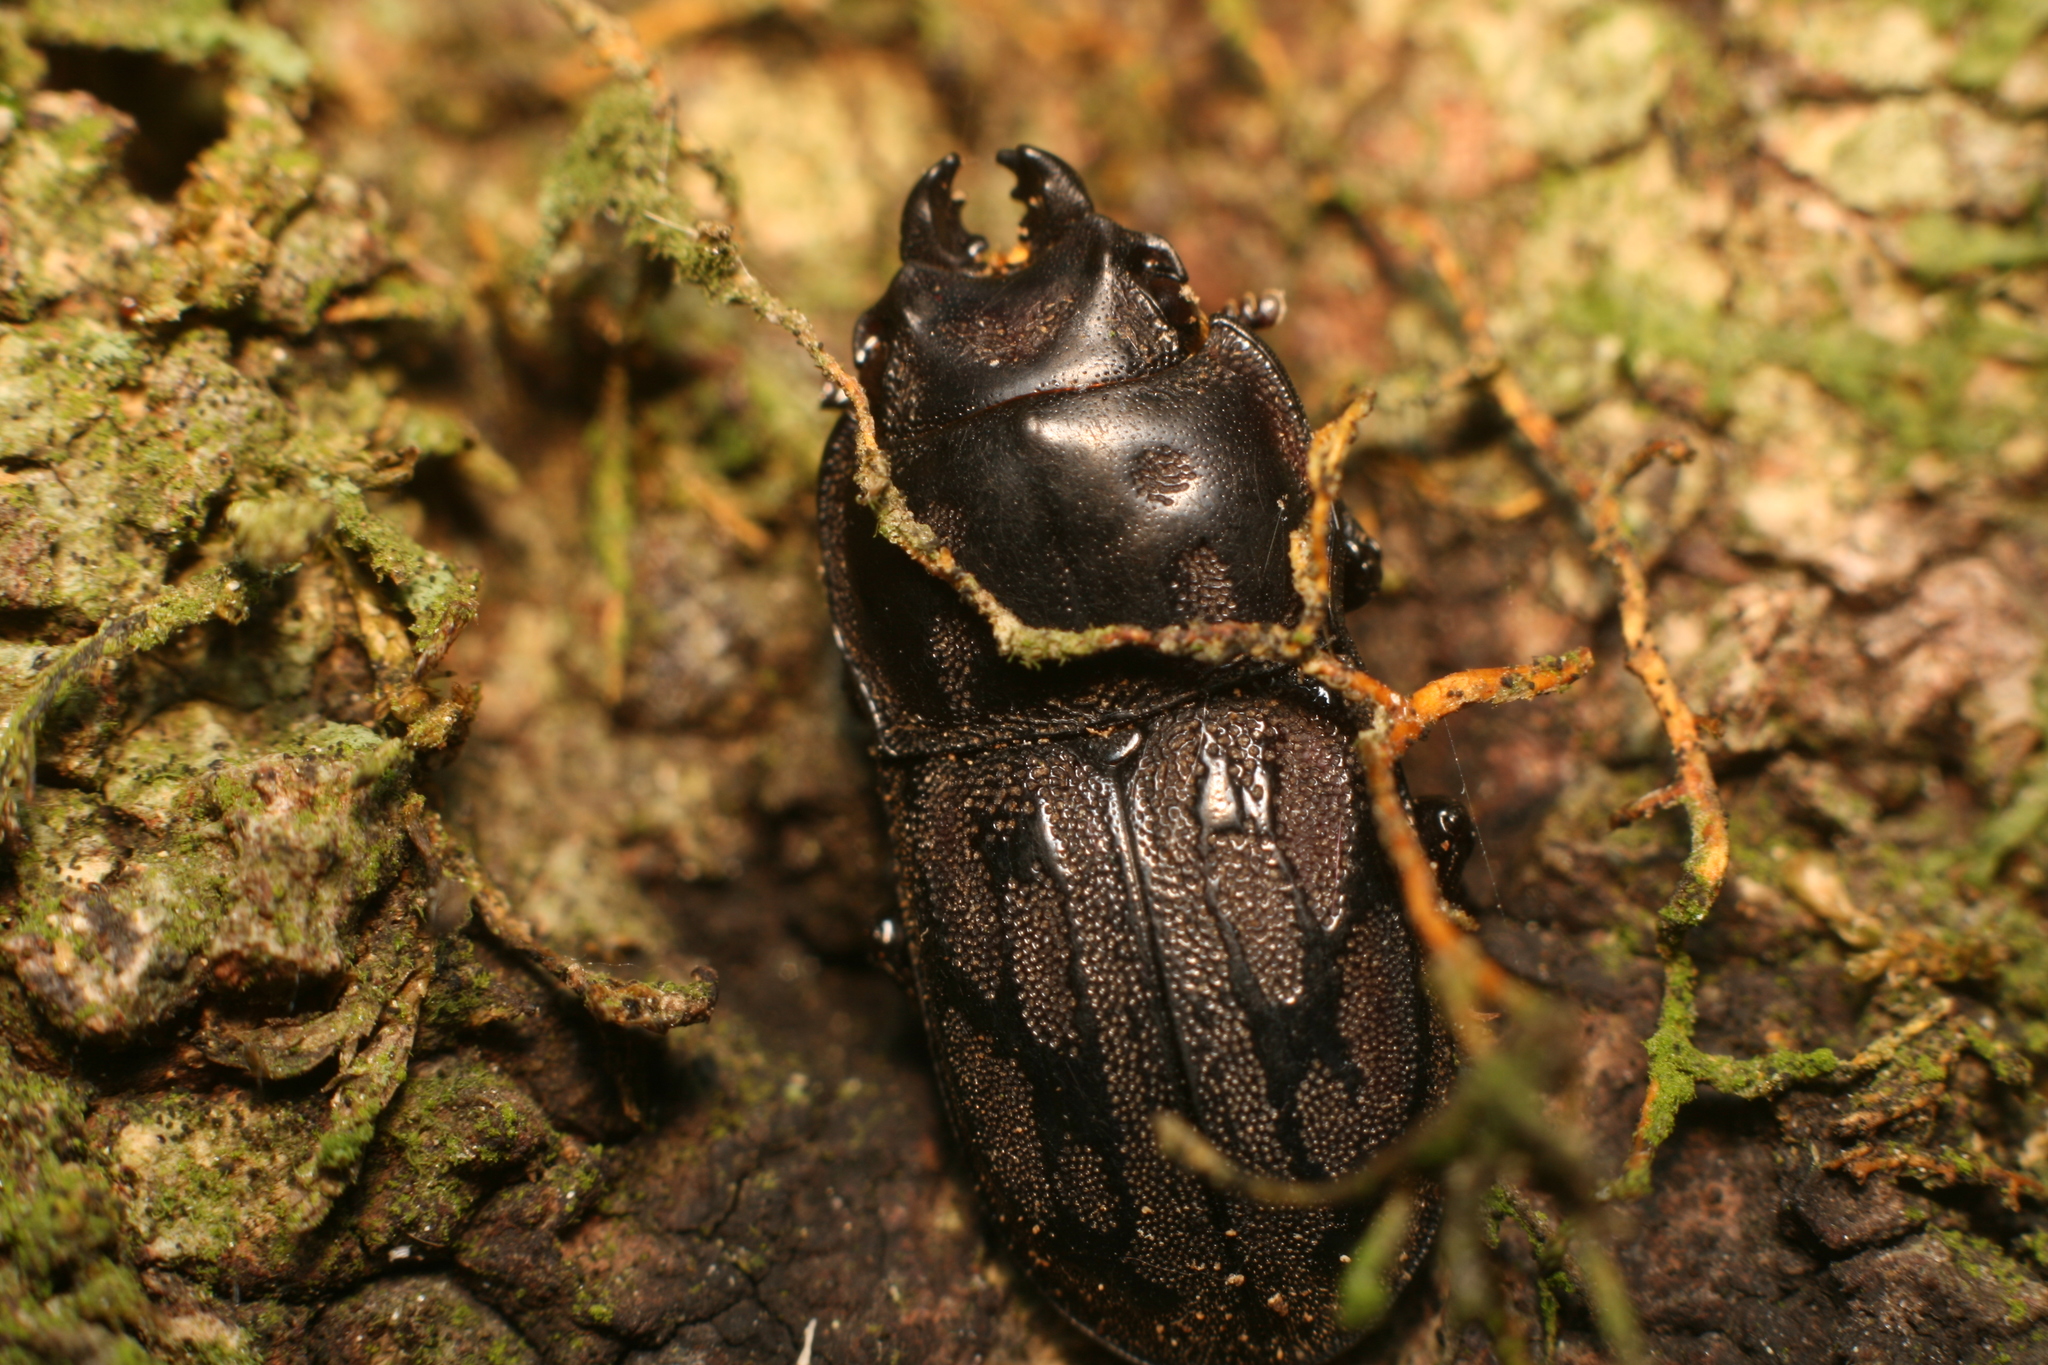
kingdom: Animalia
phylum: Arthropoda
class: Insecta
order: Coleoptera
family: Lucanidae
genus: Paralissotes
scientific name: Paralissotes reticulatus
